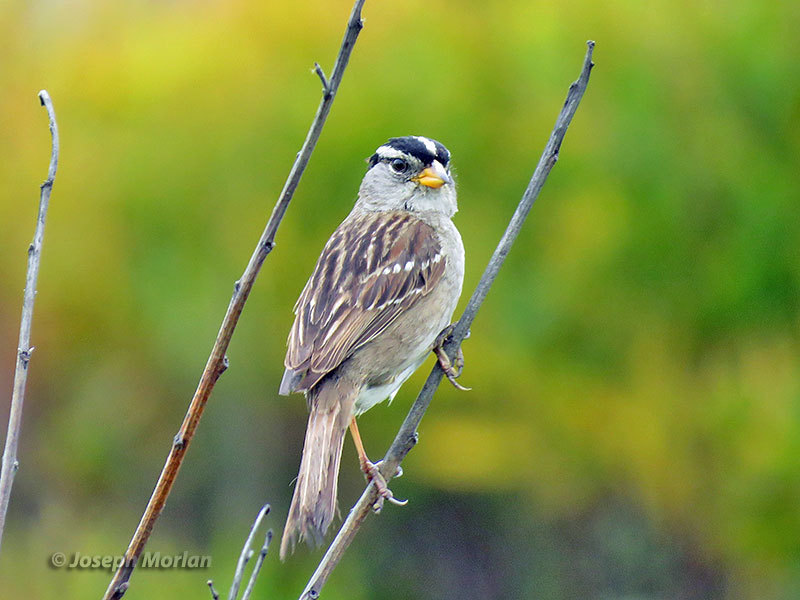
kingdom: Animalia
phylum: Chordata
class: Aves
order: Passeriformes
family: Passerellidae
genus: Zonotrichia
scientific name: Zonotrichia leucophrys
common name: White-crowned sparrow
